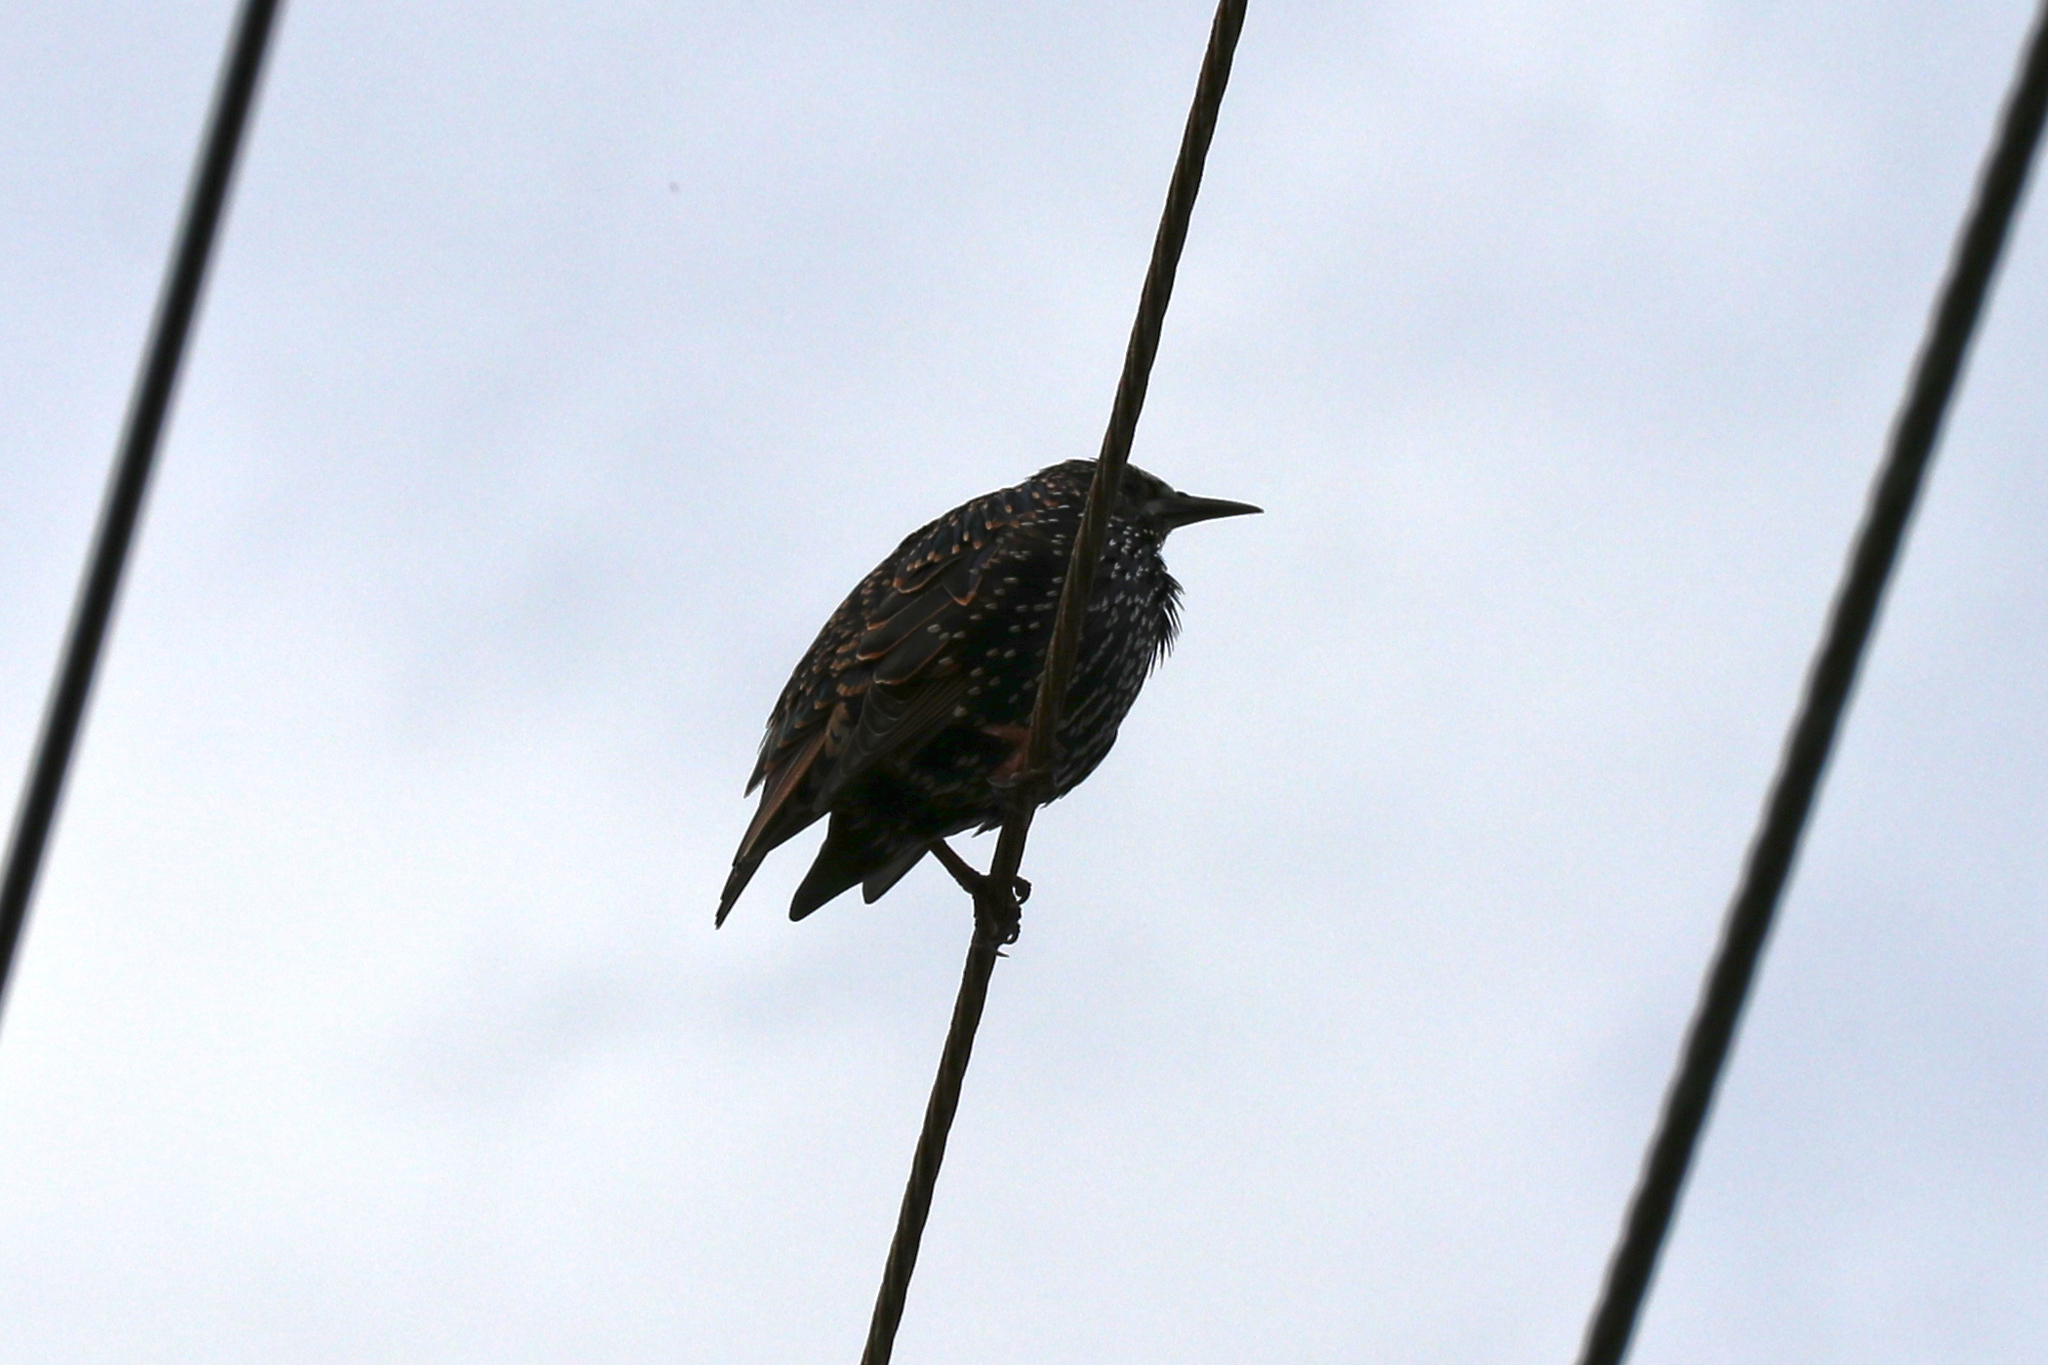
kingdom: Animalia
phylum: Chordata
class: Aves
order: Passeriformes
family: Sturnidae
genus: Sturnus
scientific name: Sturnus vulgaris
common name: Common starling
